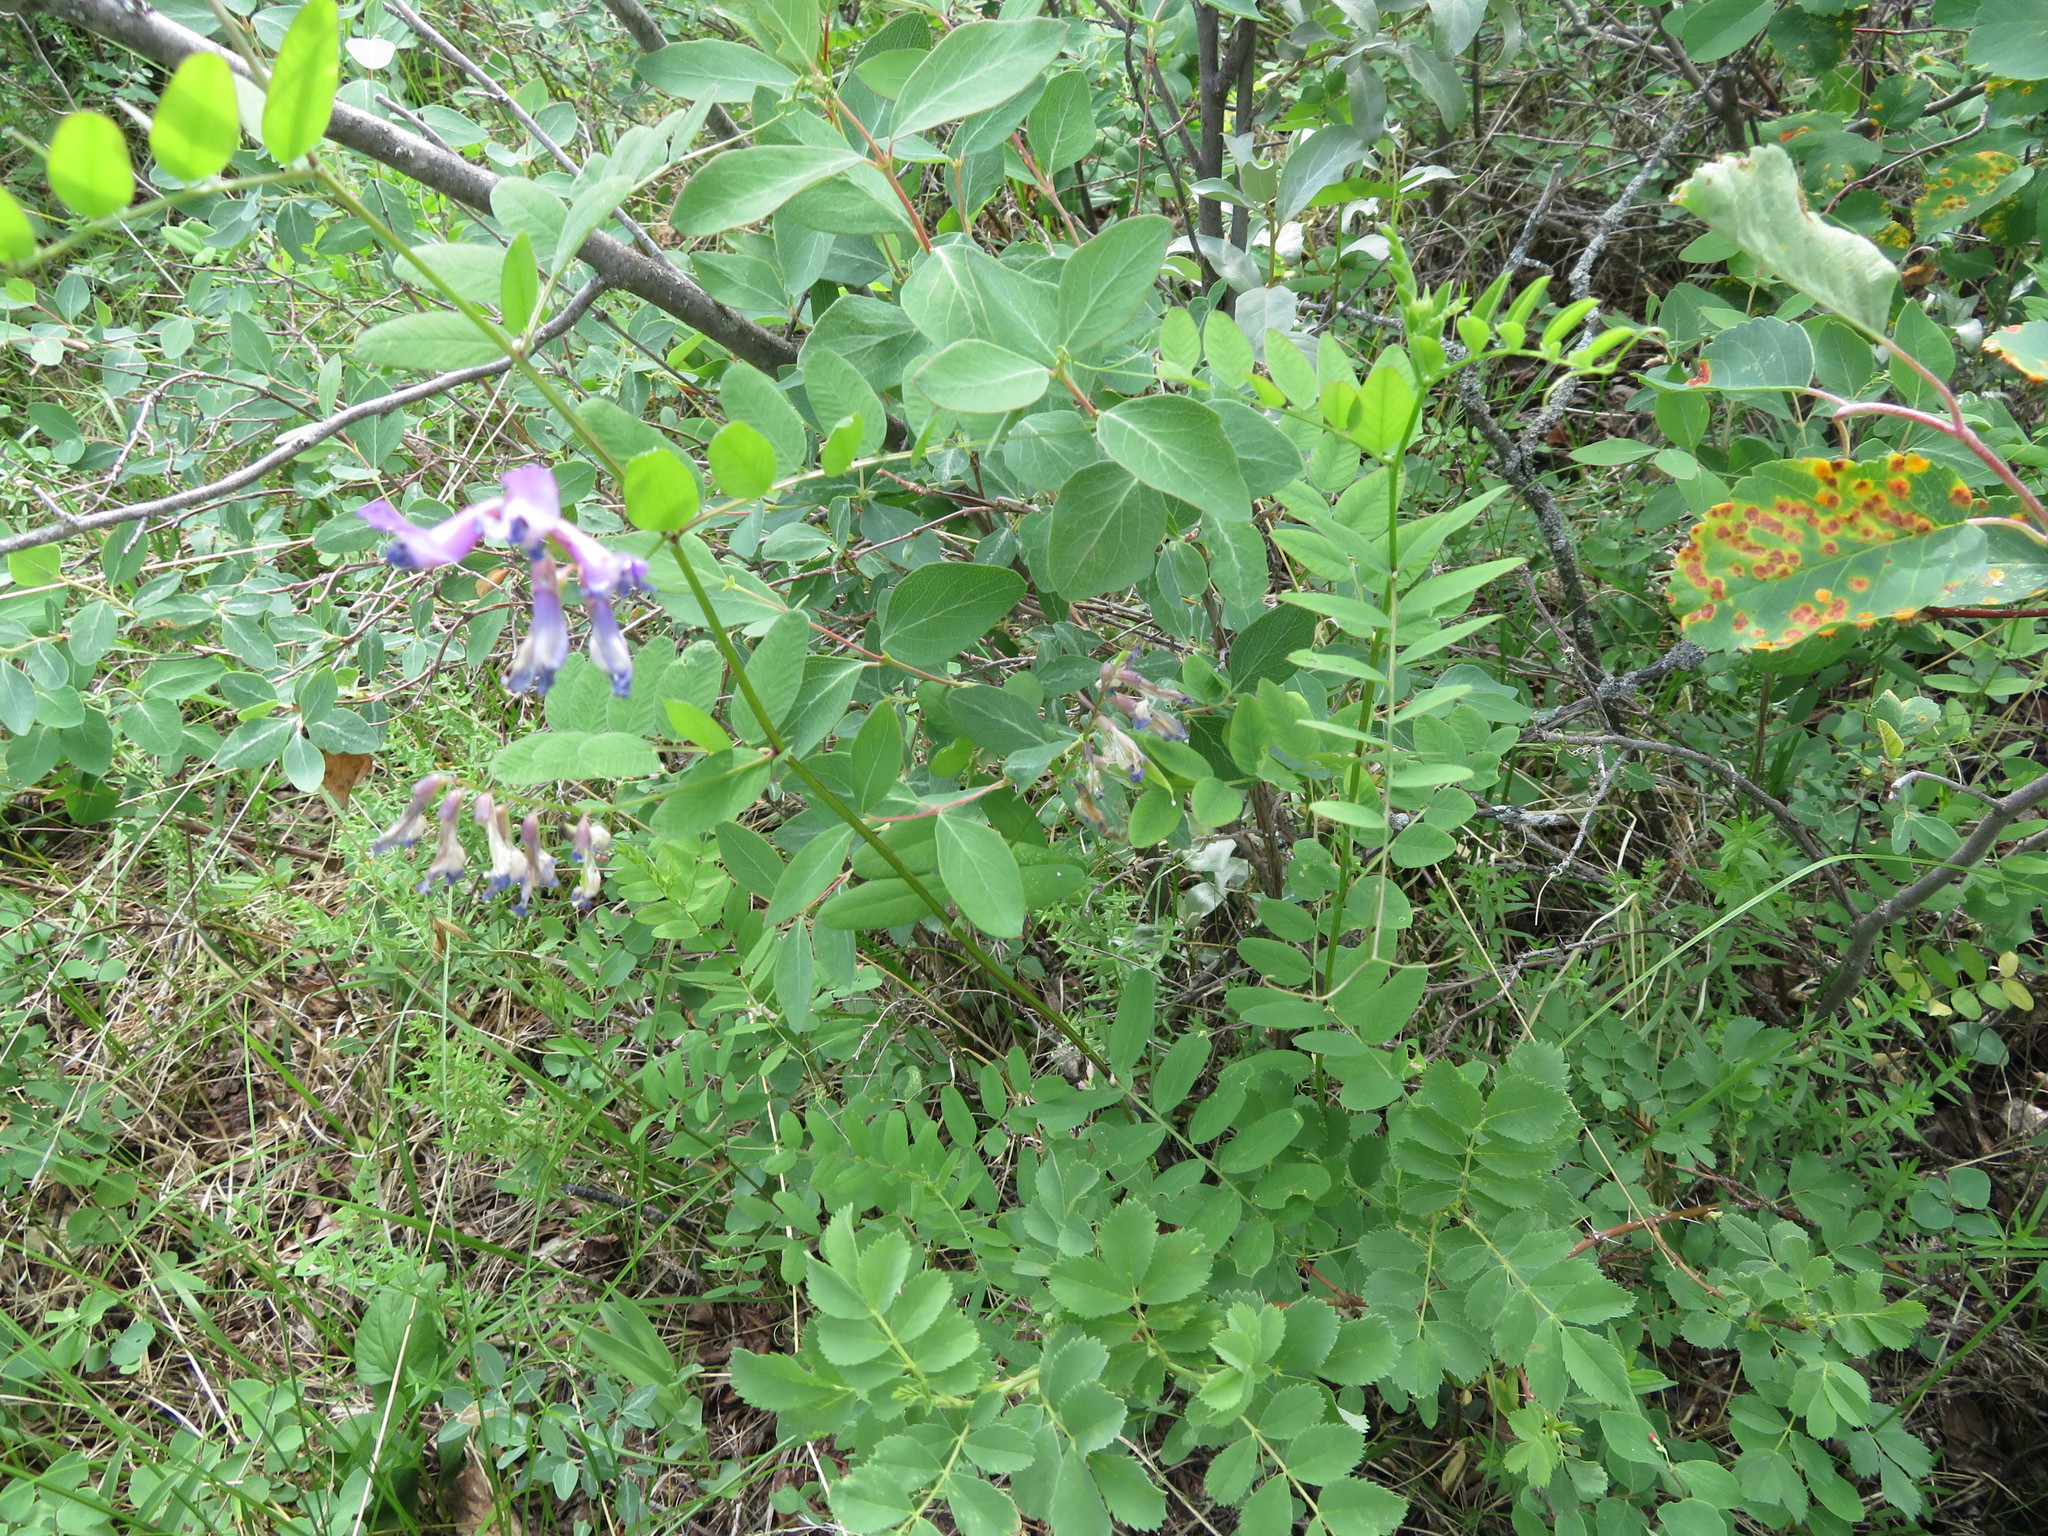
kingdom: Plantae
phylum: Tracheophyta
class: Magnoliopsida
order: Fabales
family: Fabaceae
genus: Vicia
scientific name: Vicia americana
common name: American vetch
